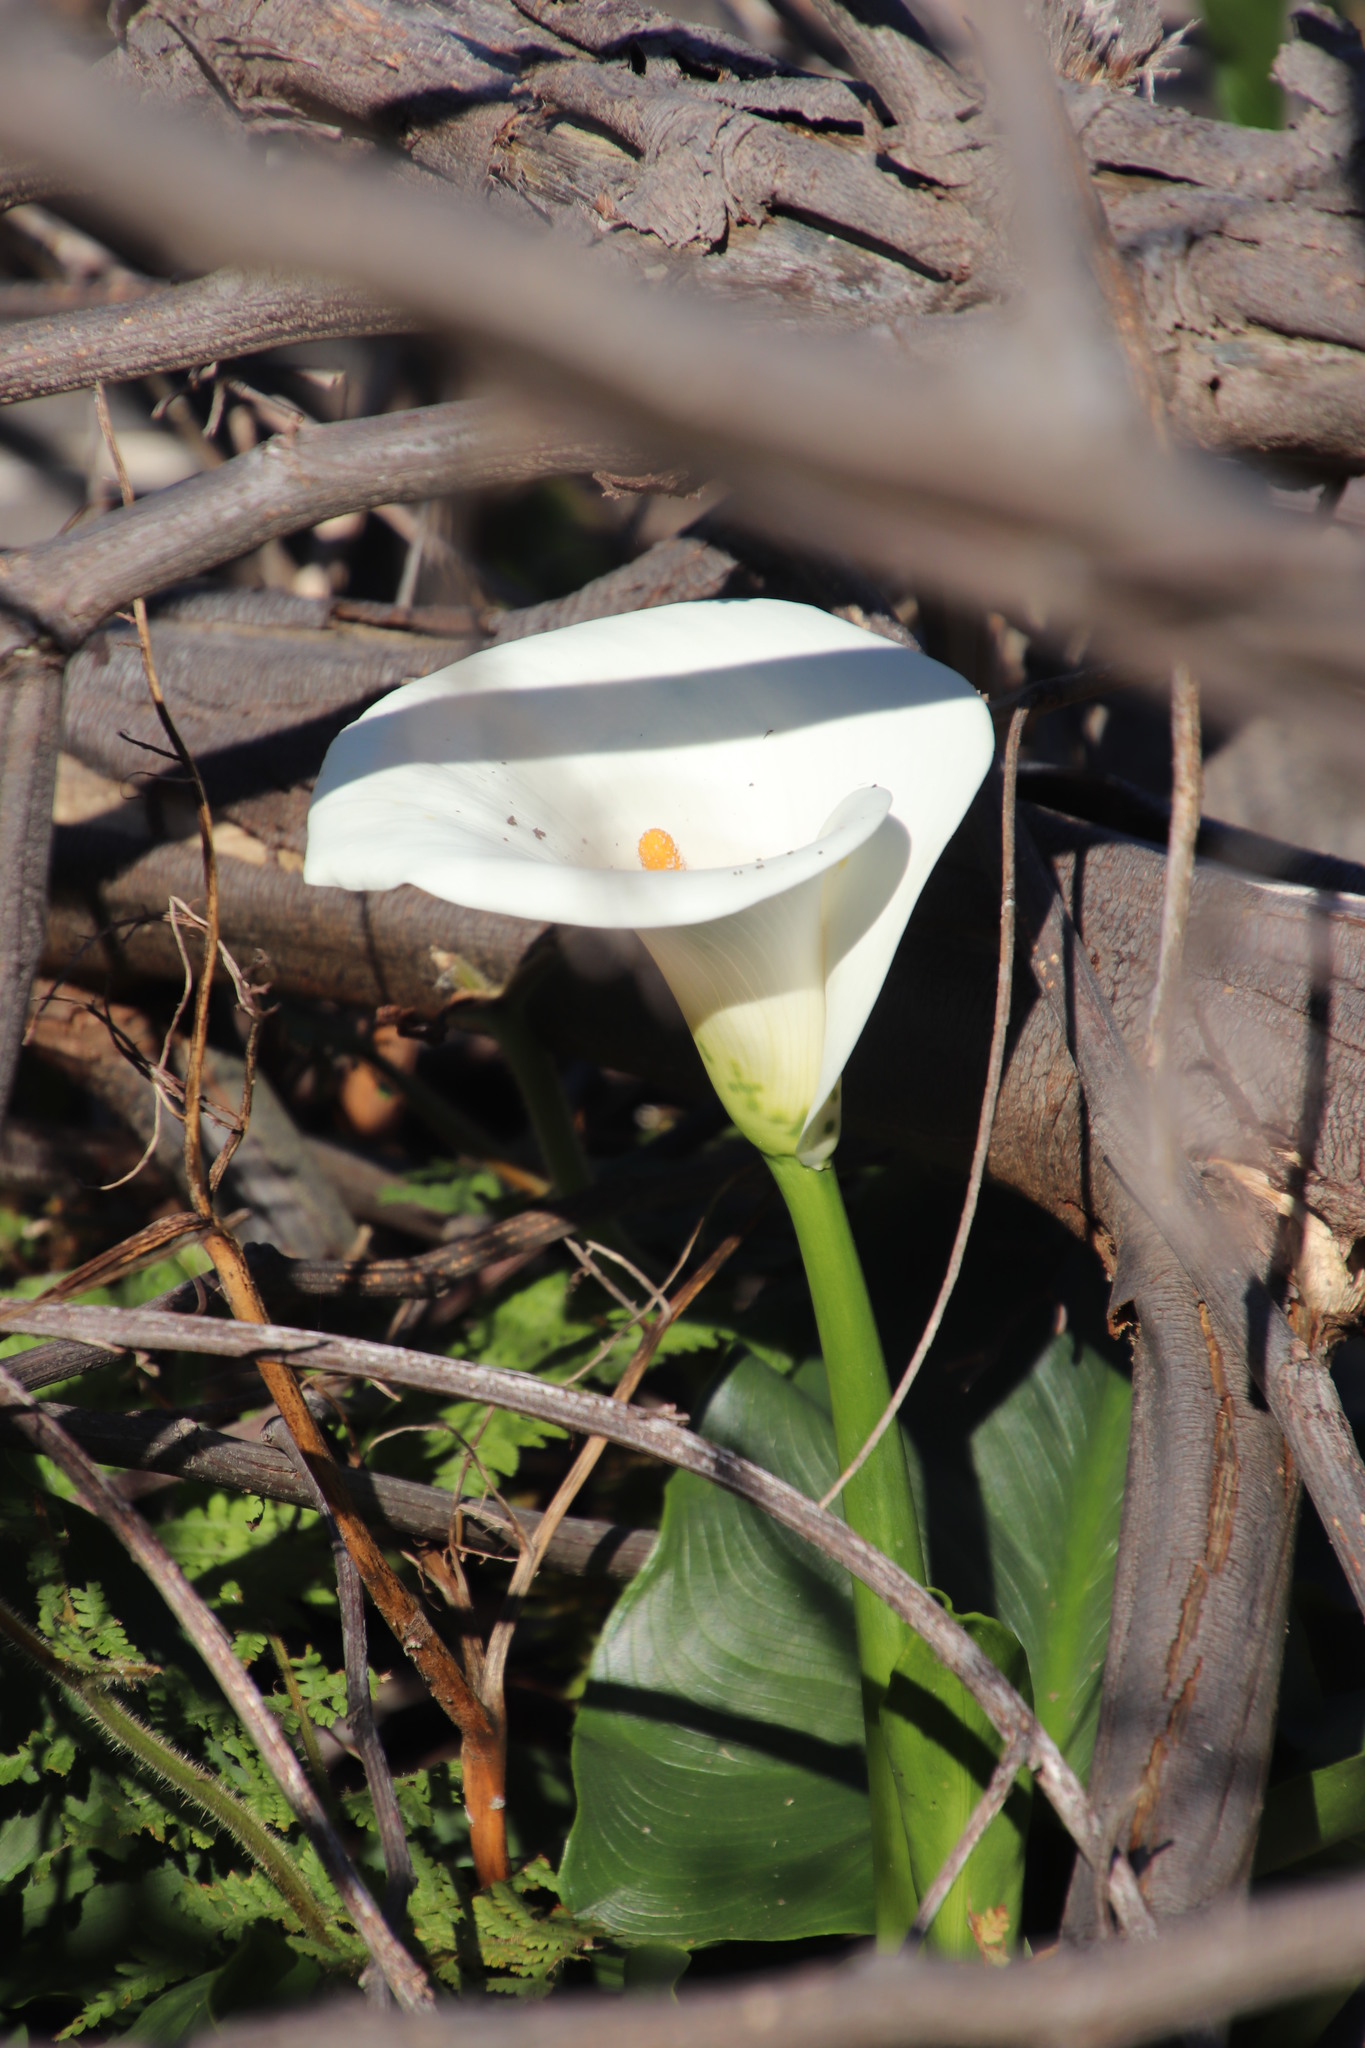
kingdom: Plantae
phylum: Tracheophyta
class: Liliopsida
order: Alismatales
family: Araceae
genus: Zantedeschia
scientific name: Zantedeschia aethiopica
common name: Altar-lily
